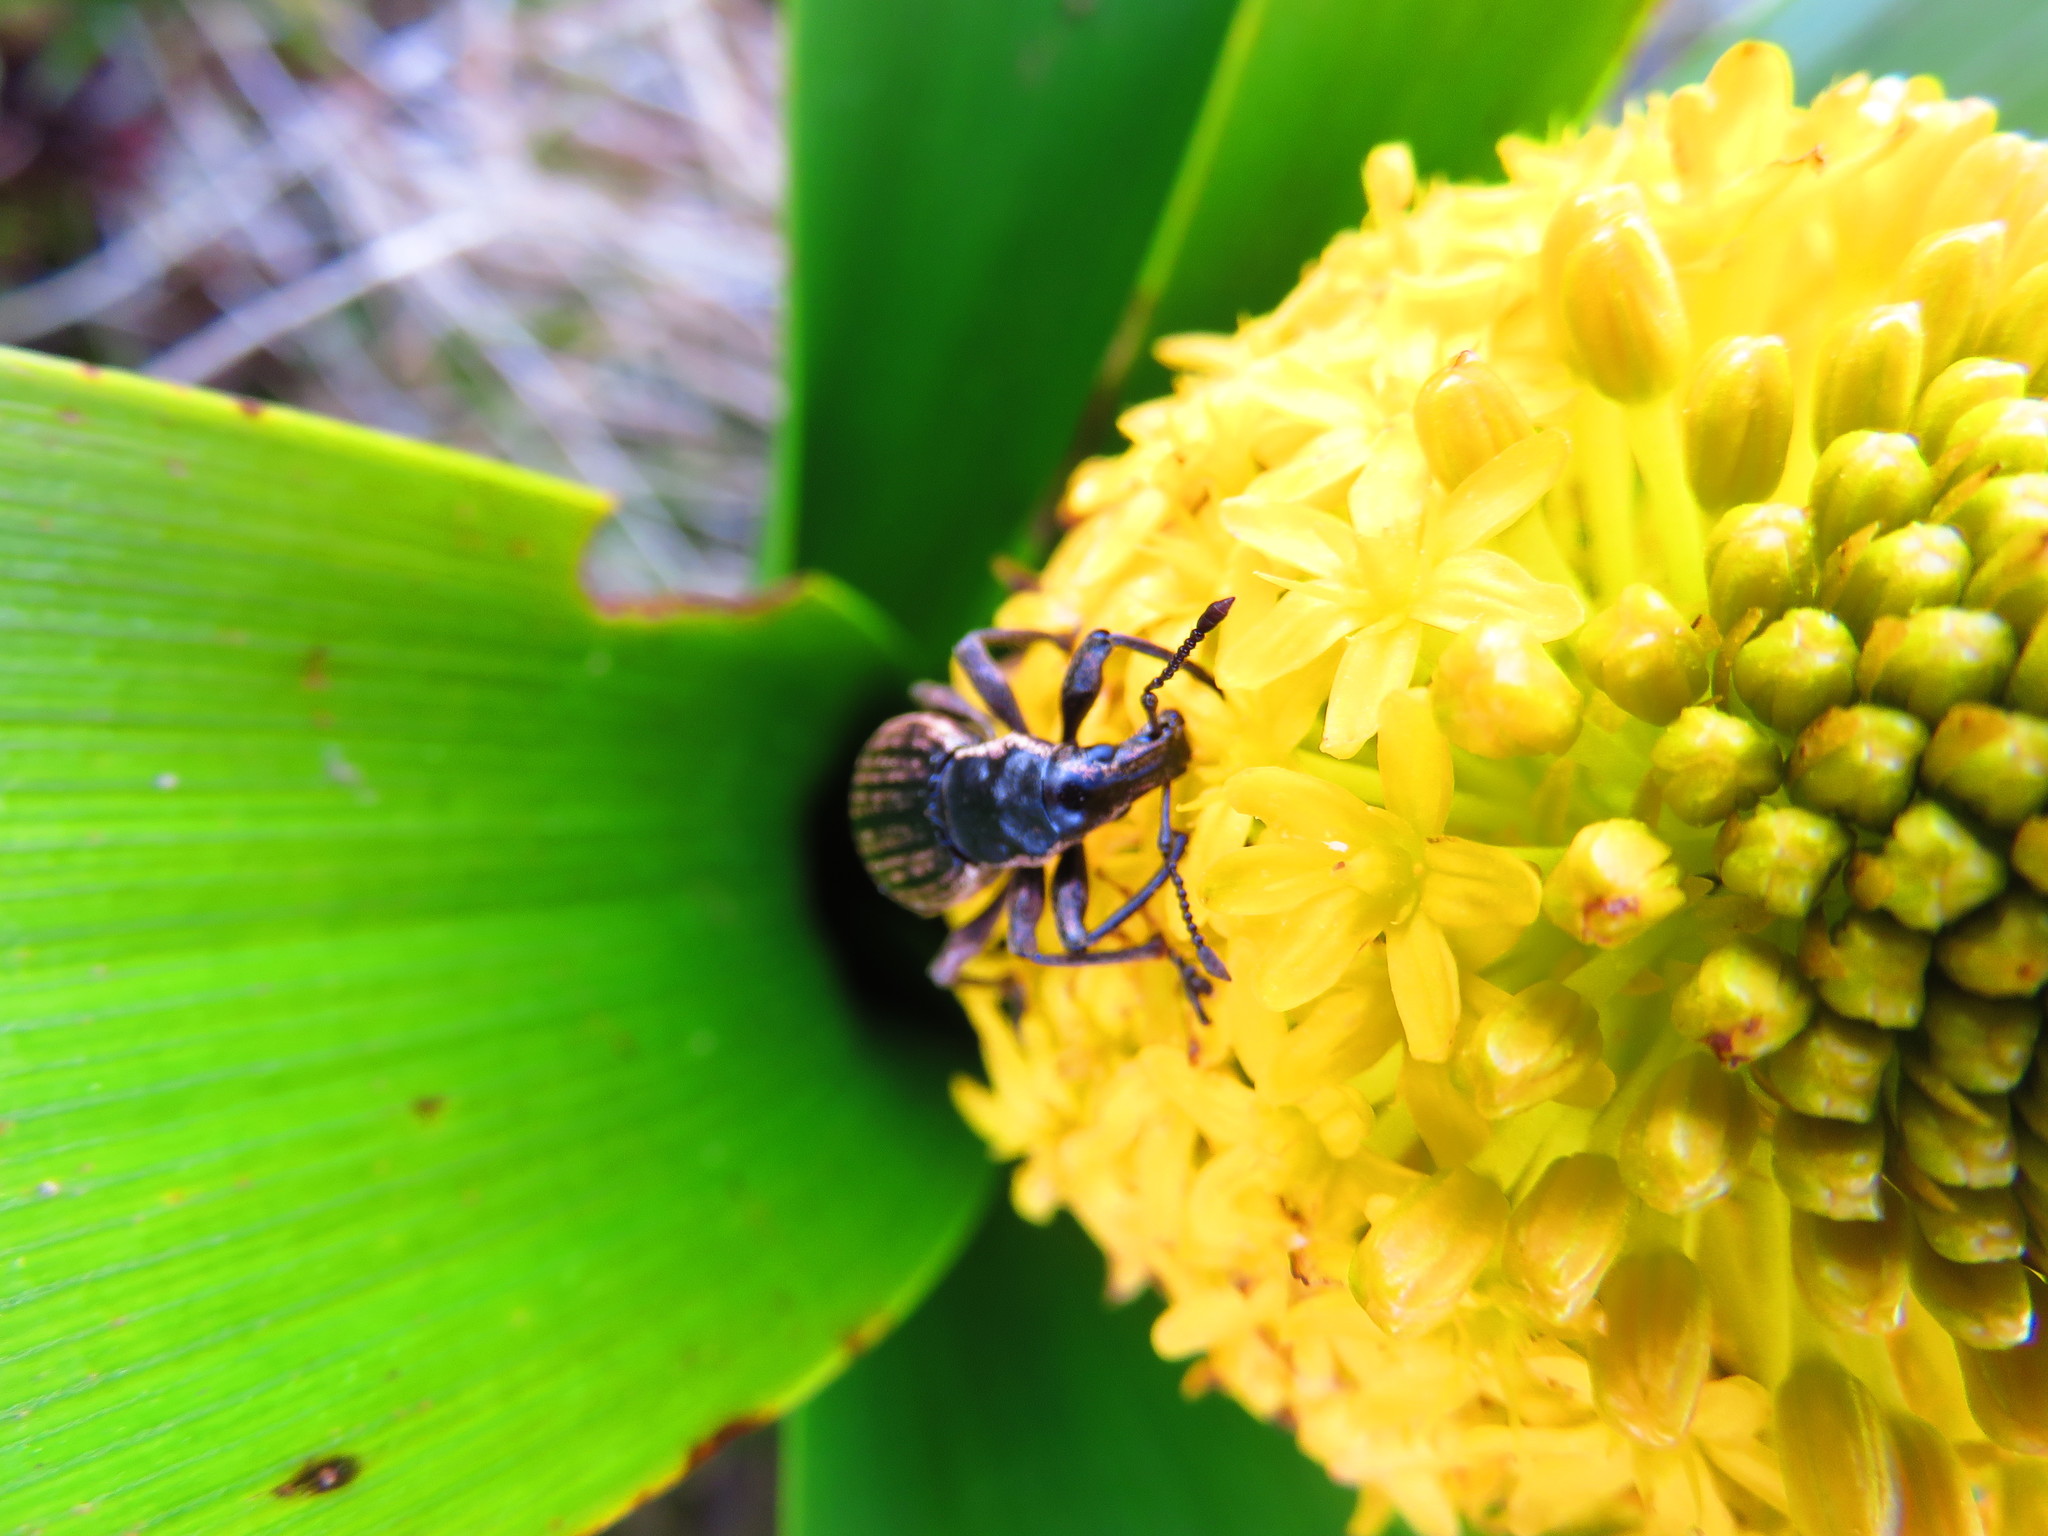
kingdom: Animalia
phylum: Arthropoda
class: Insecta
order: Coleoptera
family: Curculionidae
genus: Oclandius
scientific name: Oclandius cinereus
